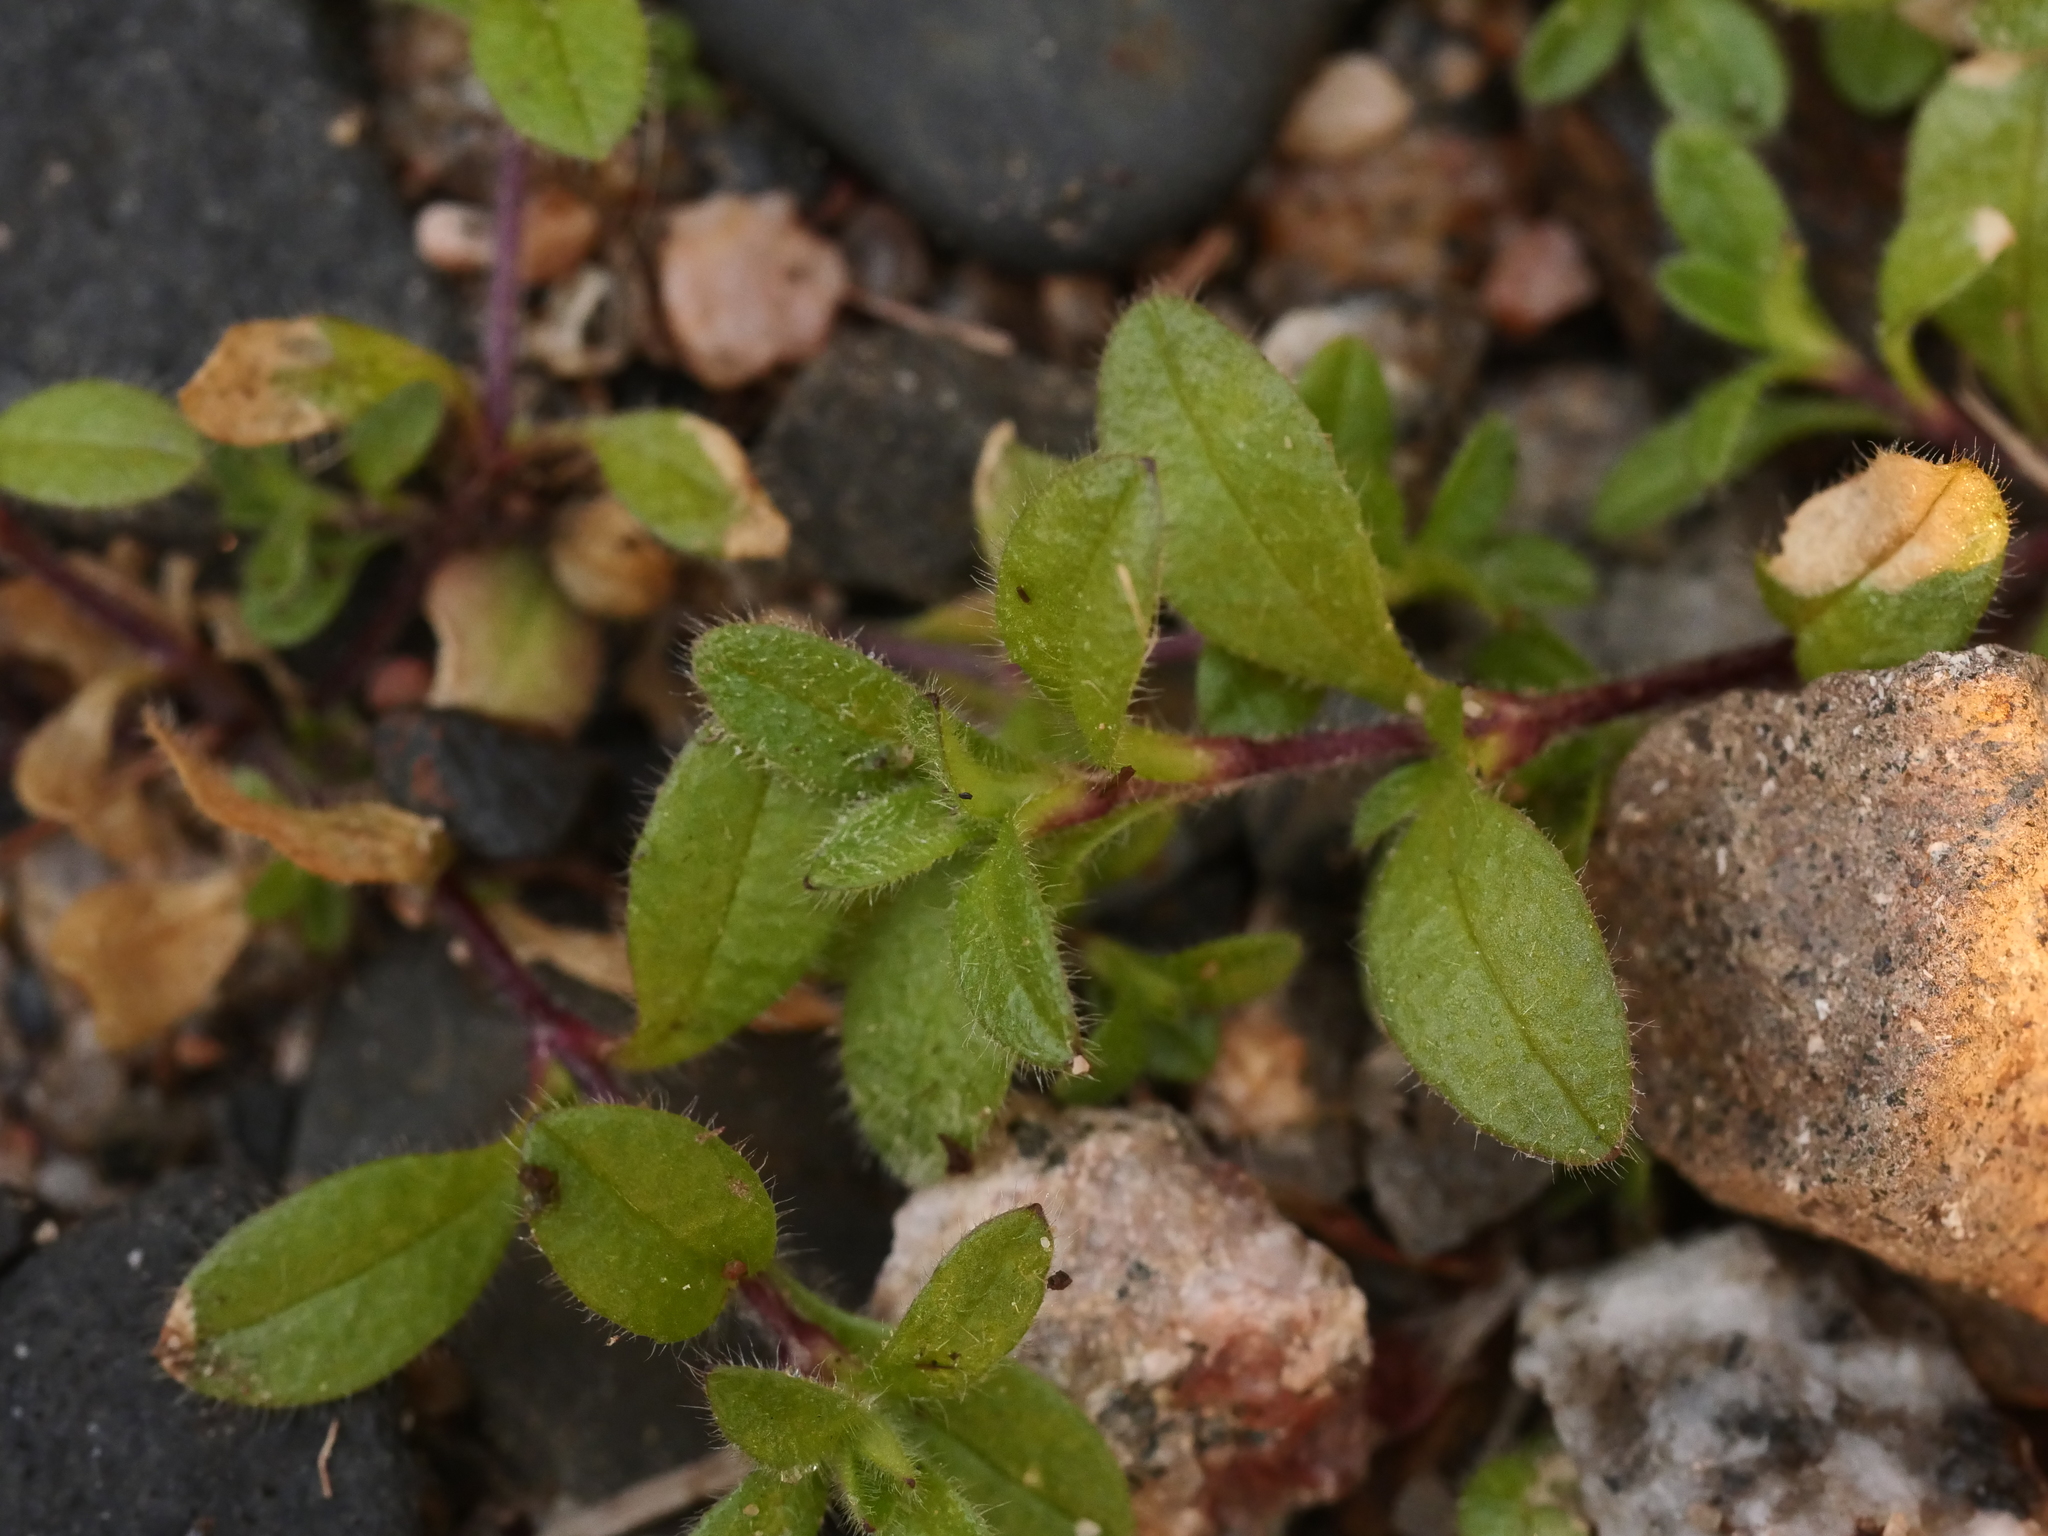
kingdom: Plantae
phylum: Tracheophyta
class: Magnoliopsida
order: Caryophyllales
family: Caryophyllaceae
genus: Cerastium
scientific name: Cerastium fontanum
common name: Common mouse-ear
